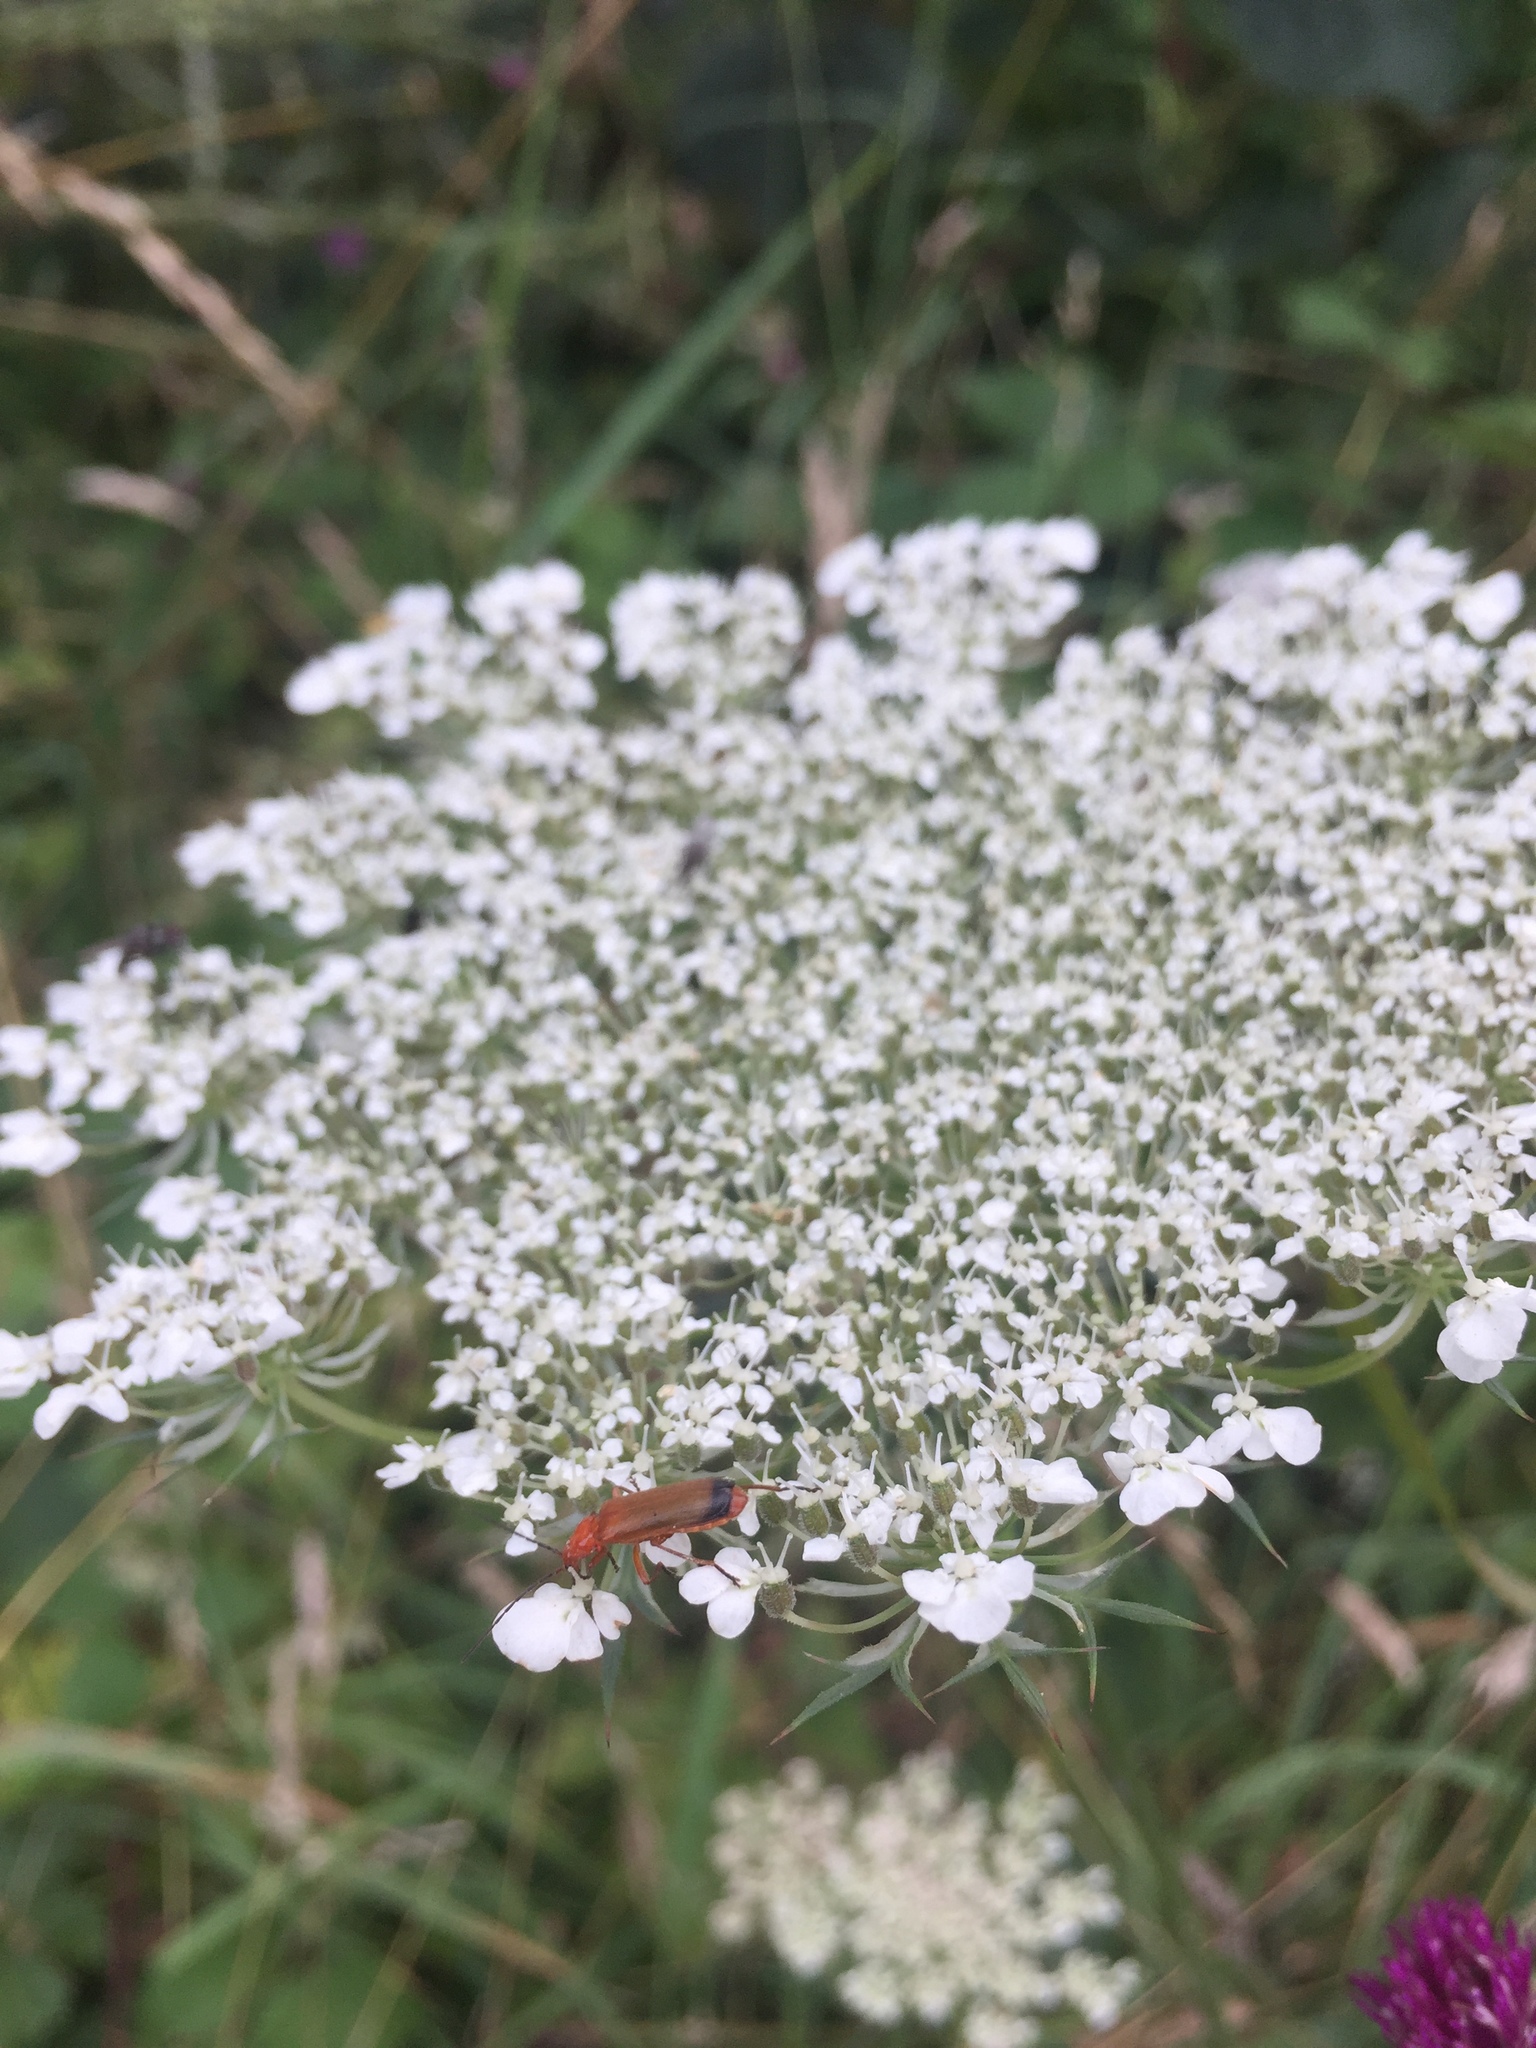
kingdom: Animalia
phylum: Arthropoda
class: Insecta
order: Coleoptera
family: Cantharidae
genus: Rhagonycha
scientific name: Rhagonycha fulva
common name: Common red soldier beetle
